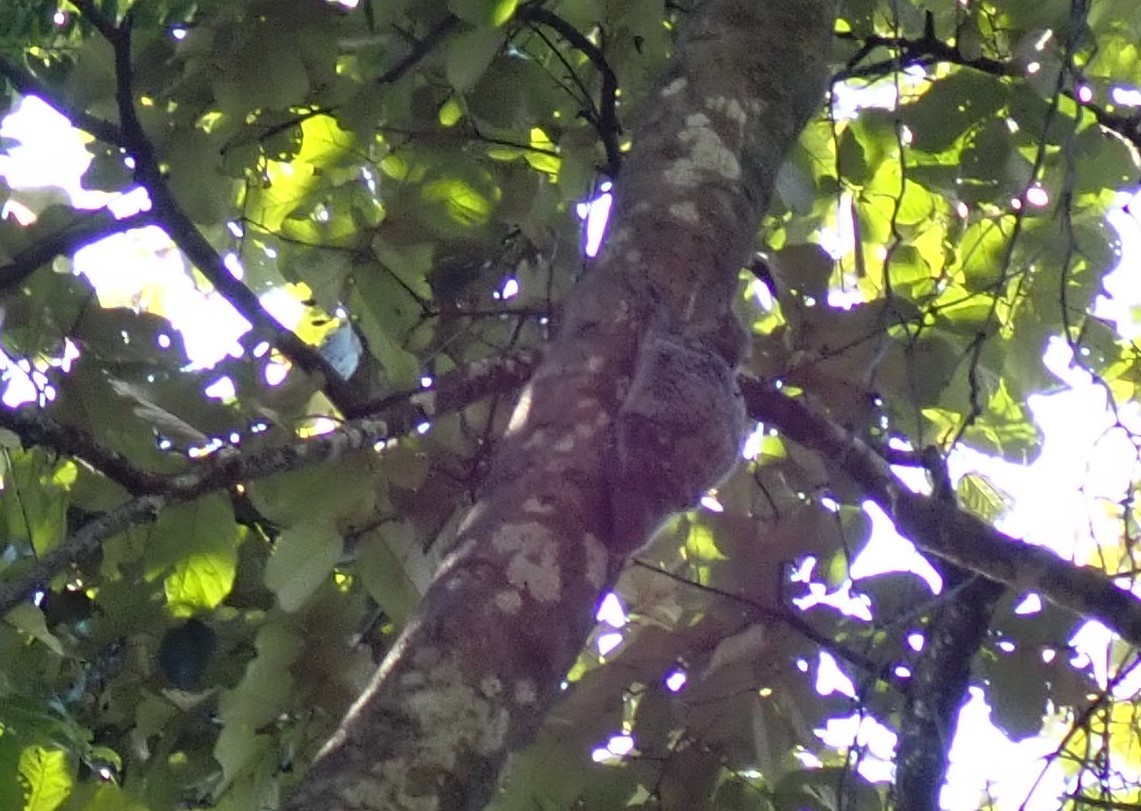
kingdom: Animalia
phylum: Chordata
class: Mammalia
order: Dermoptera
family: Cynocephalidae
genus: Galeopterus
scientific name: Galeopterus variegatus
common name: Sunda flying lemur
